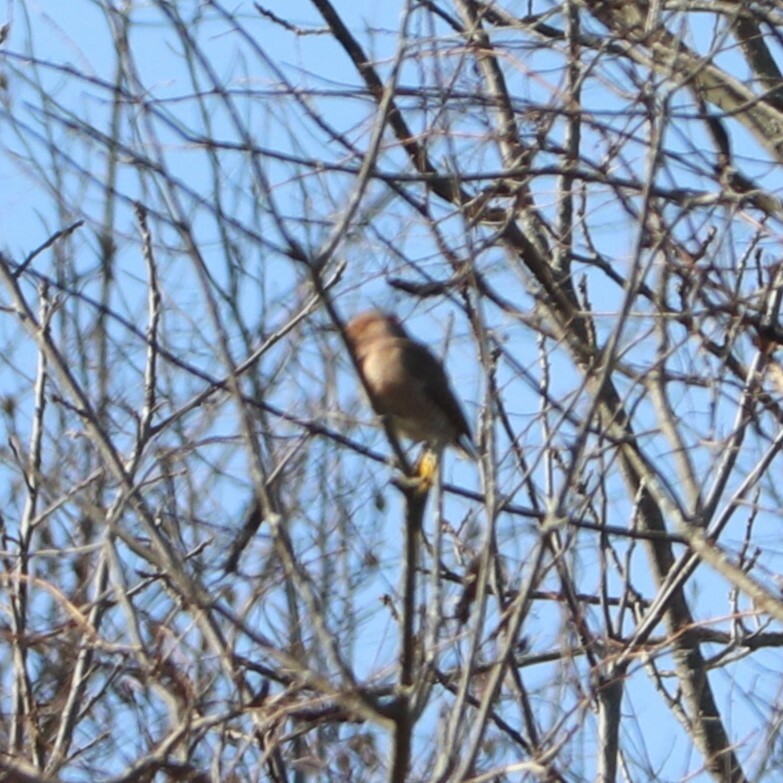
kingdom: Animalia
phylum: Chordata
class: Aves
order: Piciformes
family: Picidae
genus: Colaptes
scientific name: Colaptes auratus
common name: Northern flicker
